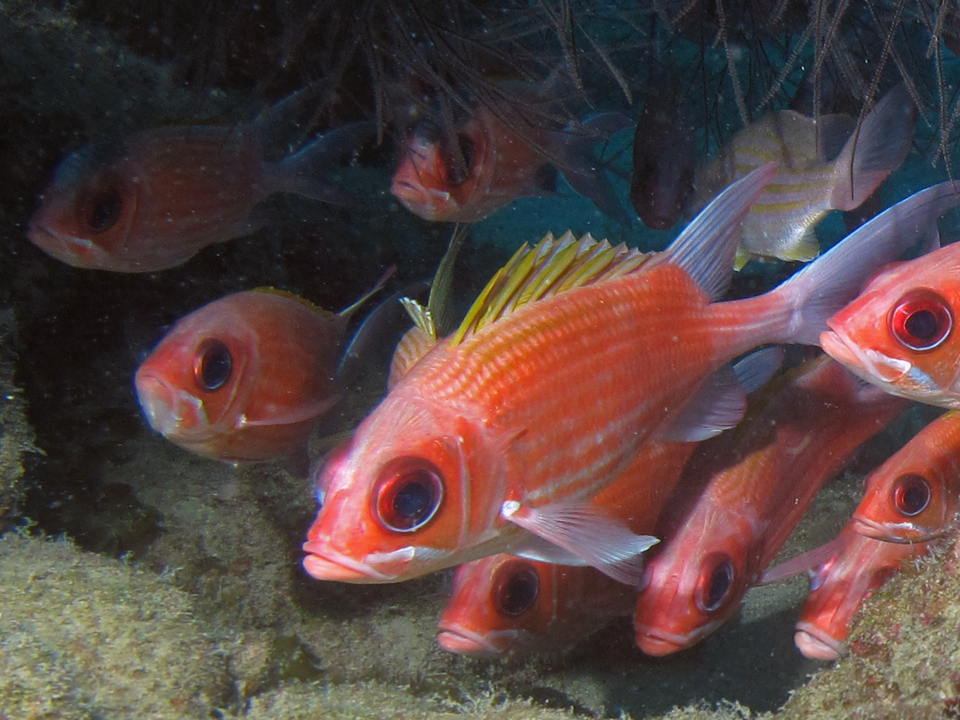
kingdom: Animalia
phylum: Chordata
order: Beryciformes
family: Holocentridae
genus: Holocentrus
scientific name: Holocentrus adscensionis
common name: Squirrelfish
